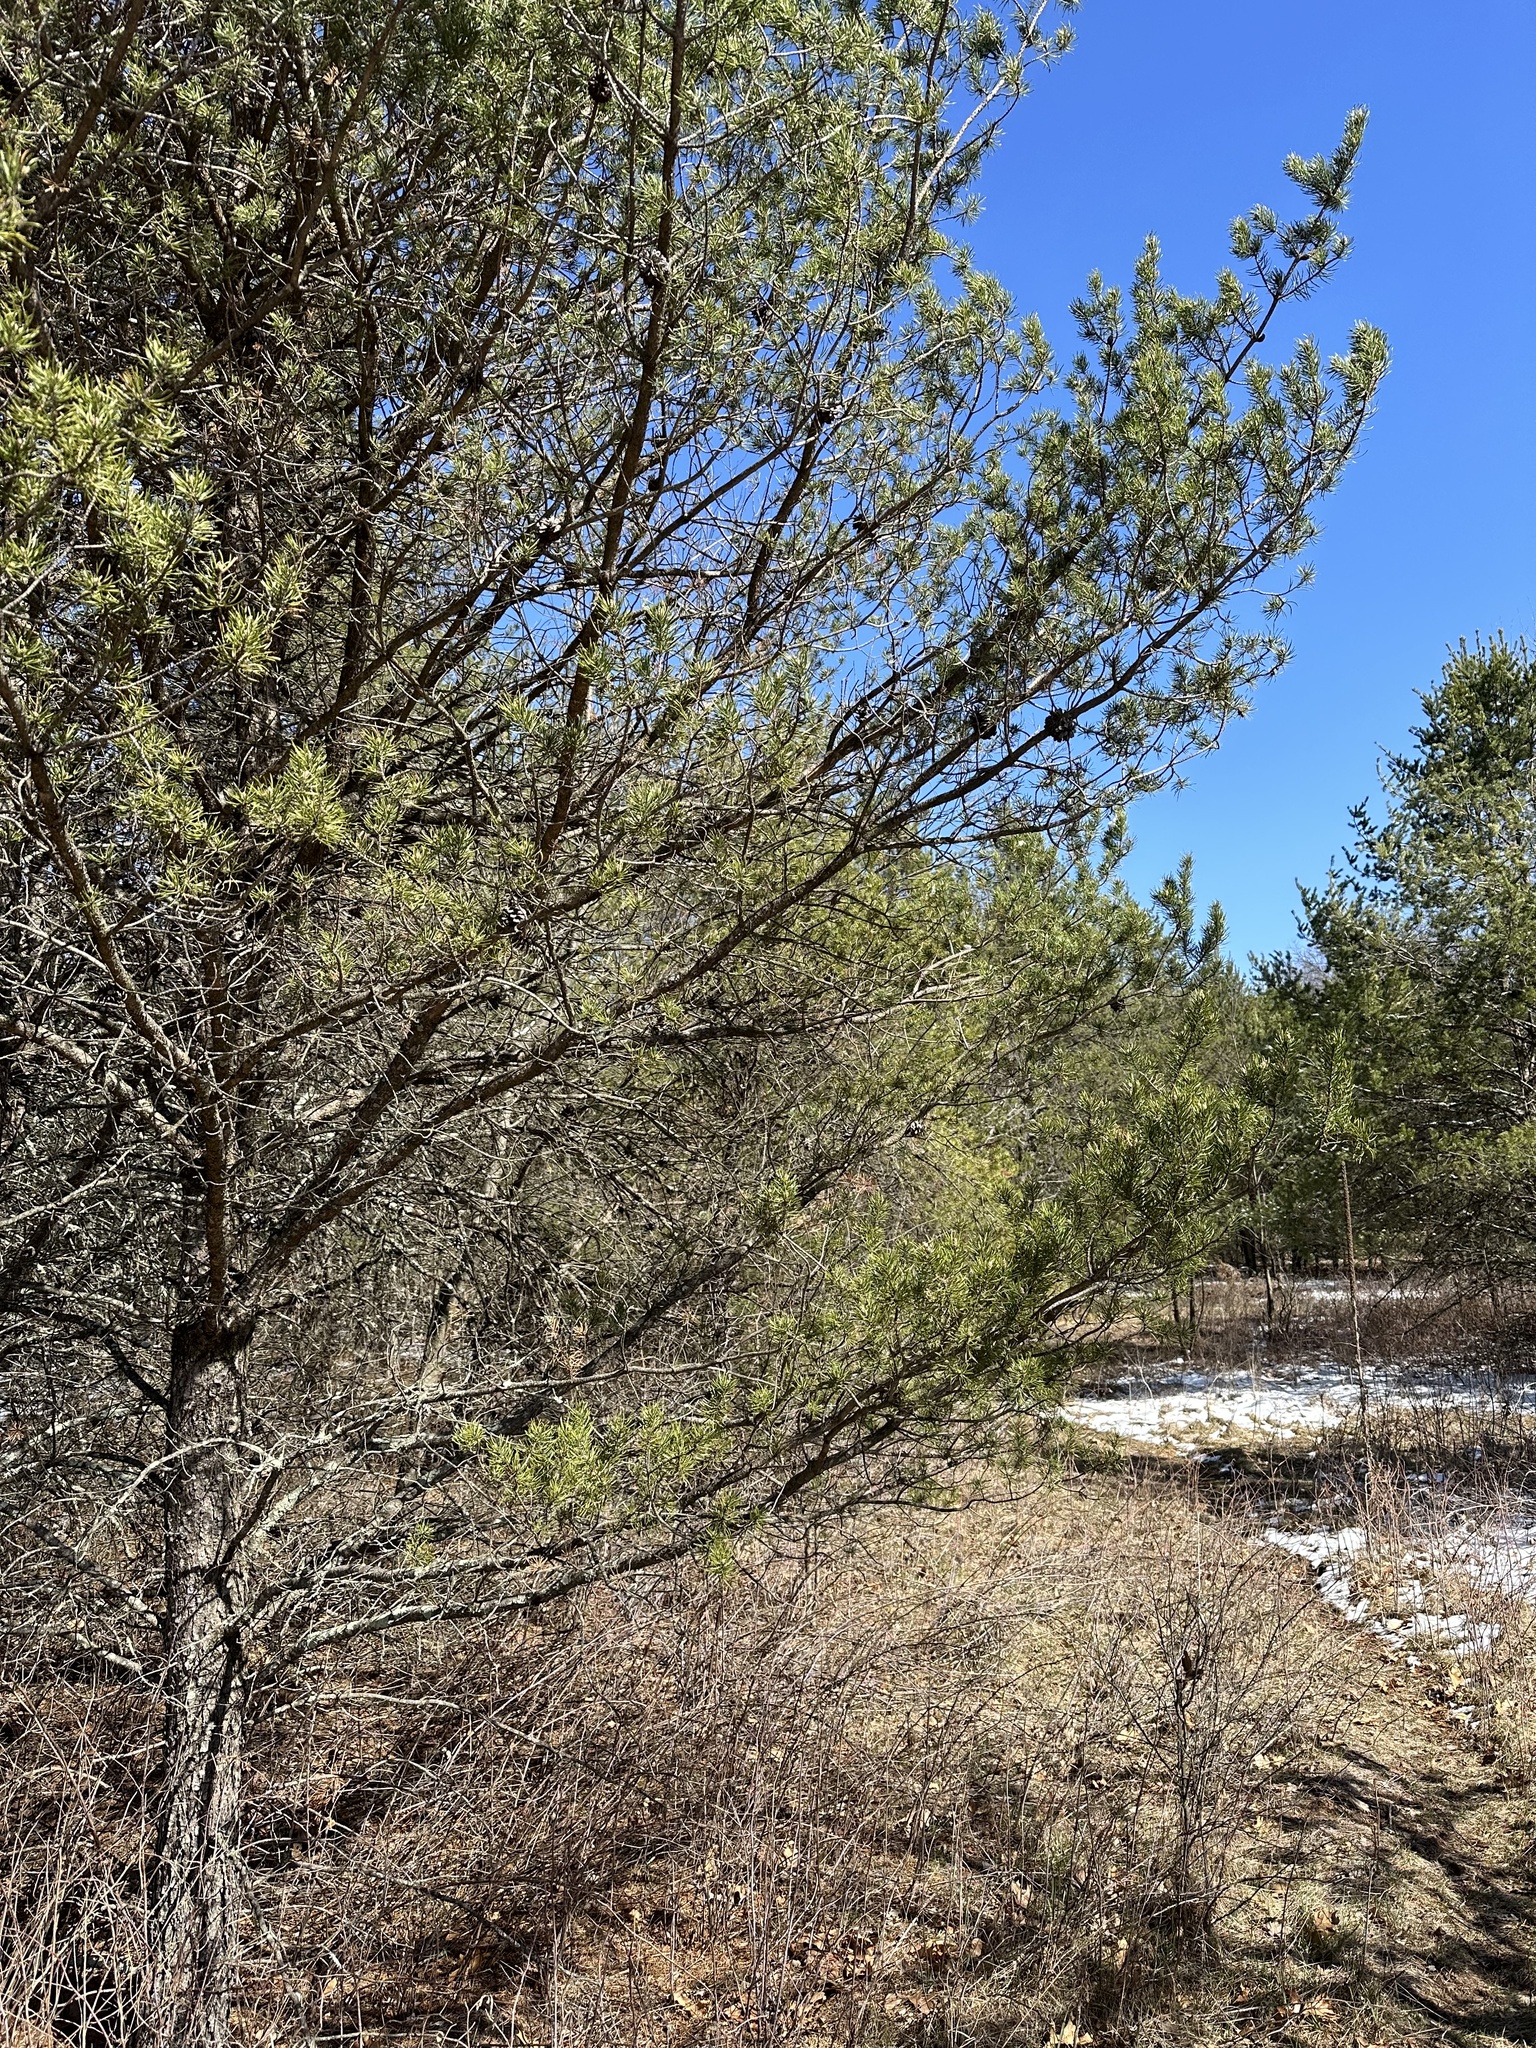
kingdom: Plantae
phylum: Tracheophyta
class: Pinopsida
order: Pinales
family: Pinaceae
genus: Pinus
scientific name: Pinus banksiana
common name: Jack pine
